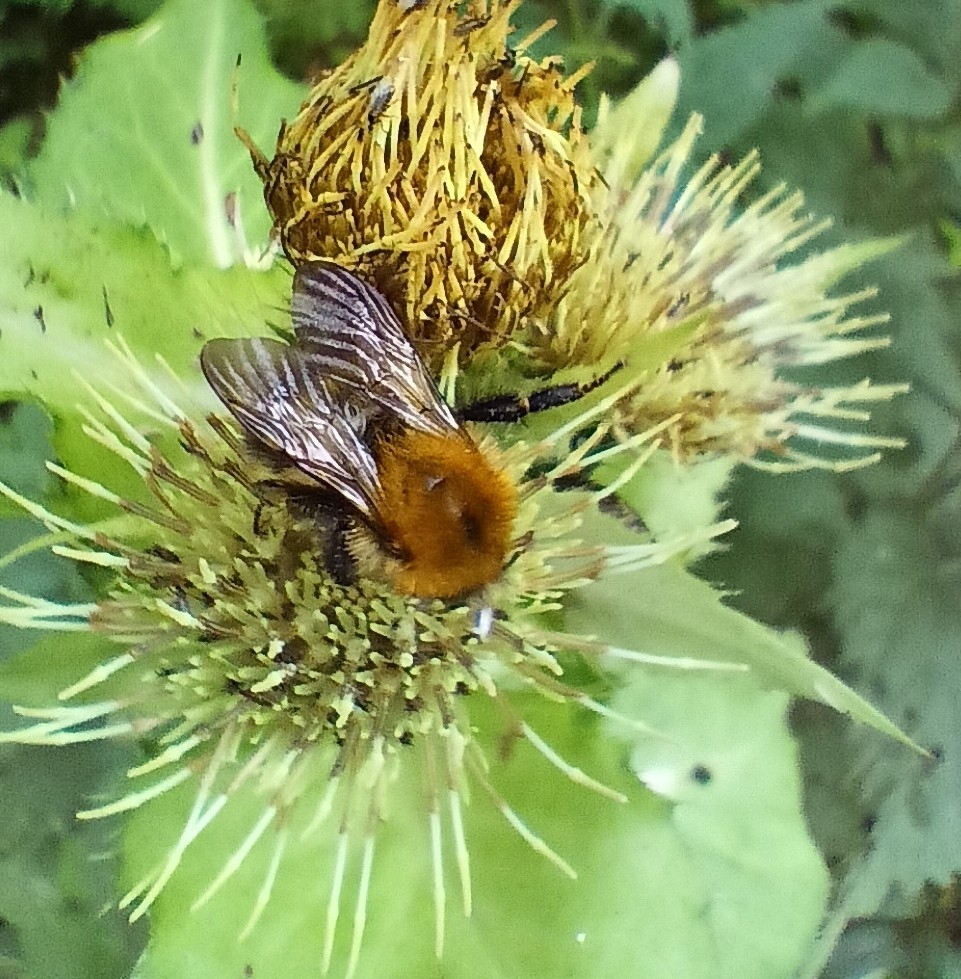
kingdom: Animalia
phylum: Arthropoda
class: Insecta
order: Hymenoptera
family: Apidae
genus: Bombus
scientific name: Bombus pascuorum
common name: Common carder bee
